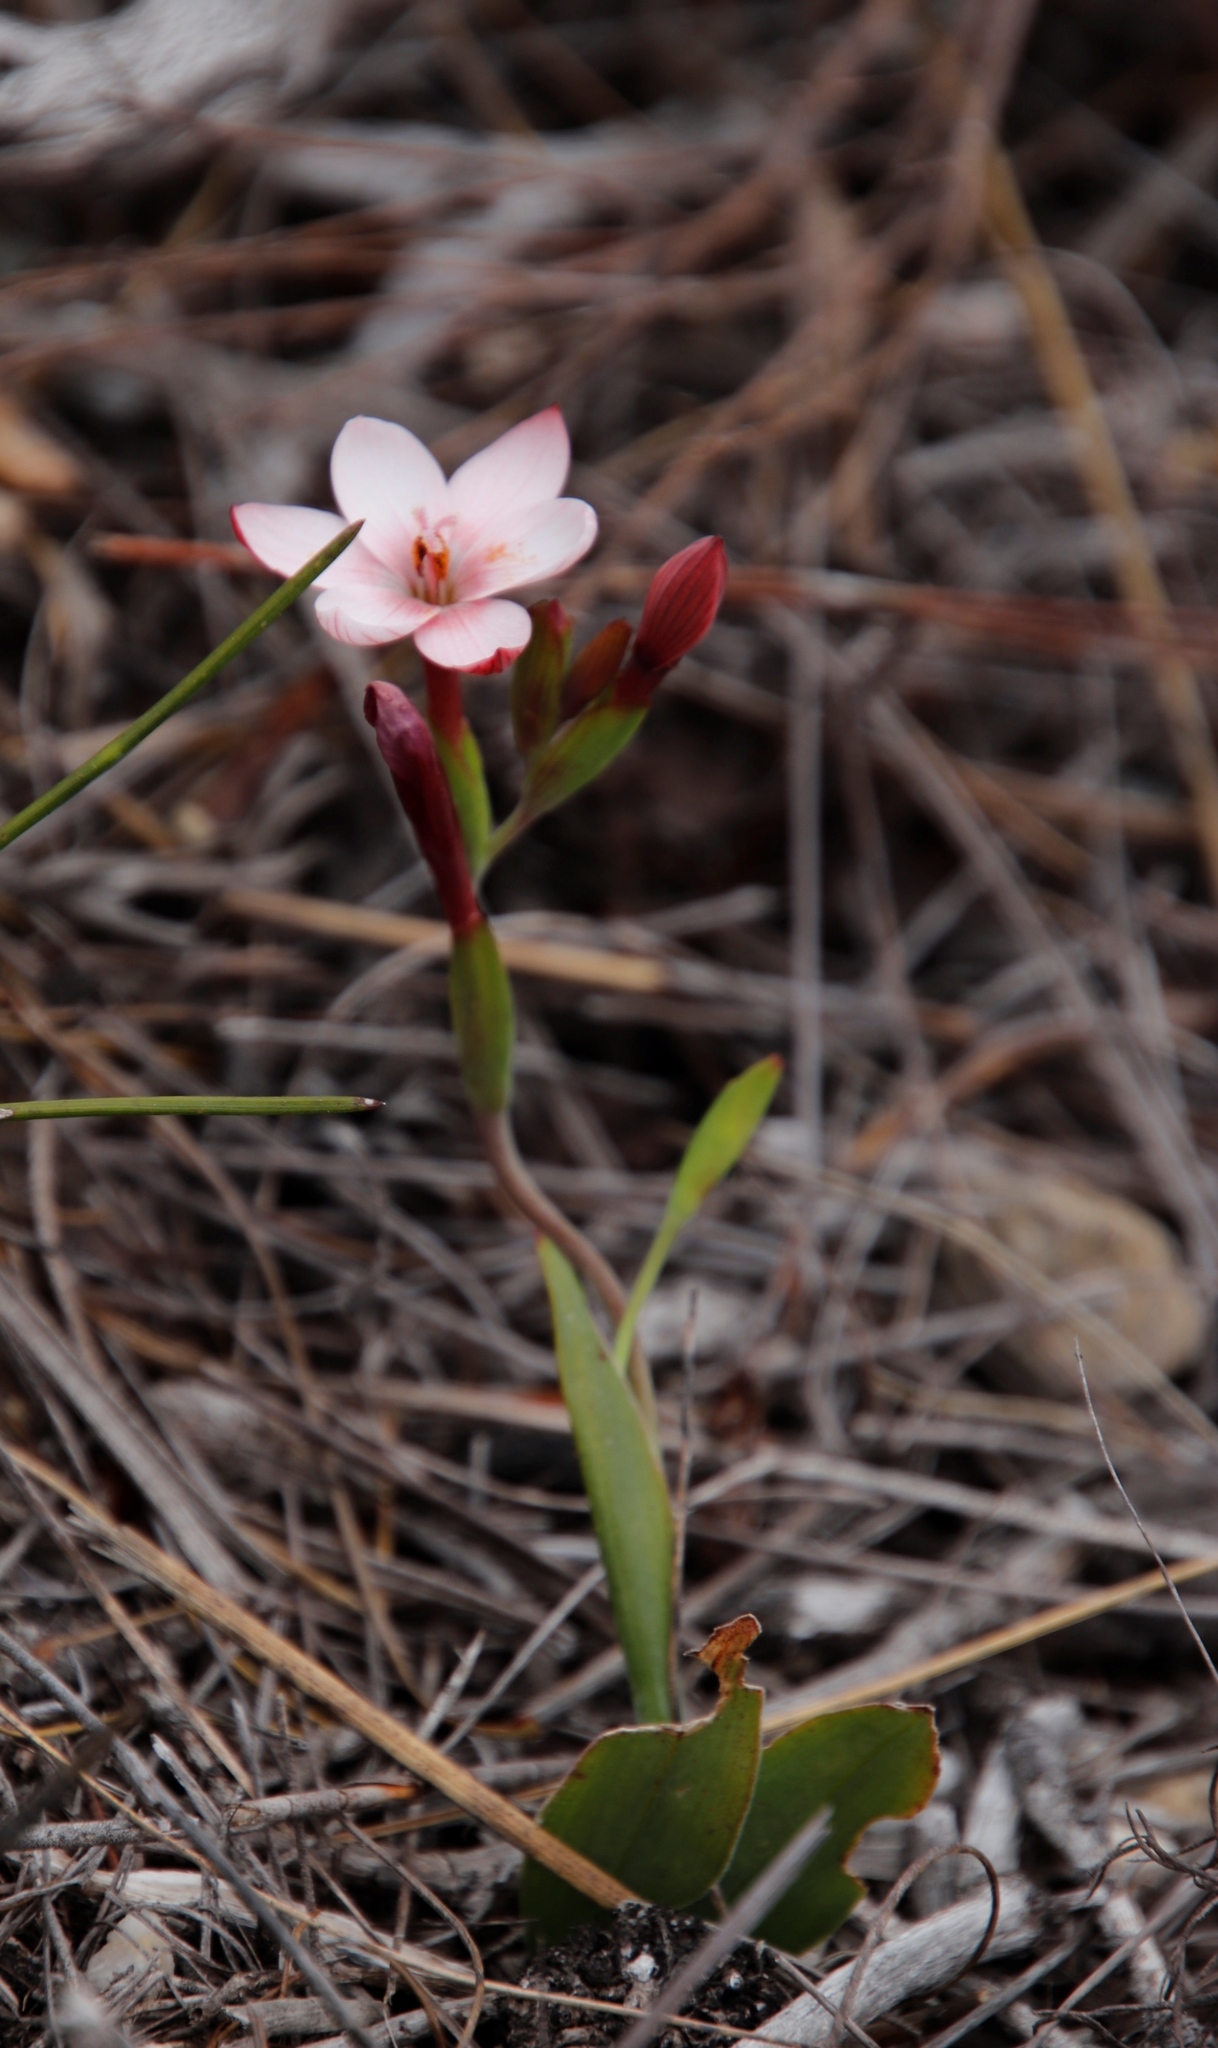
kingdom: Plantae
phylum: Tracheophyta
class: Liliopsida
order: Asparagales
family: Iridaceae
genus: Geissorhiza
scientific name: Geissorhiza ovata
